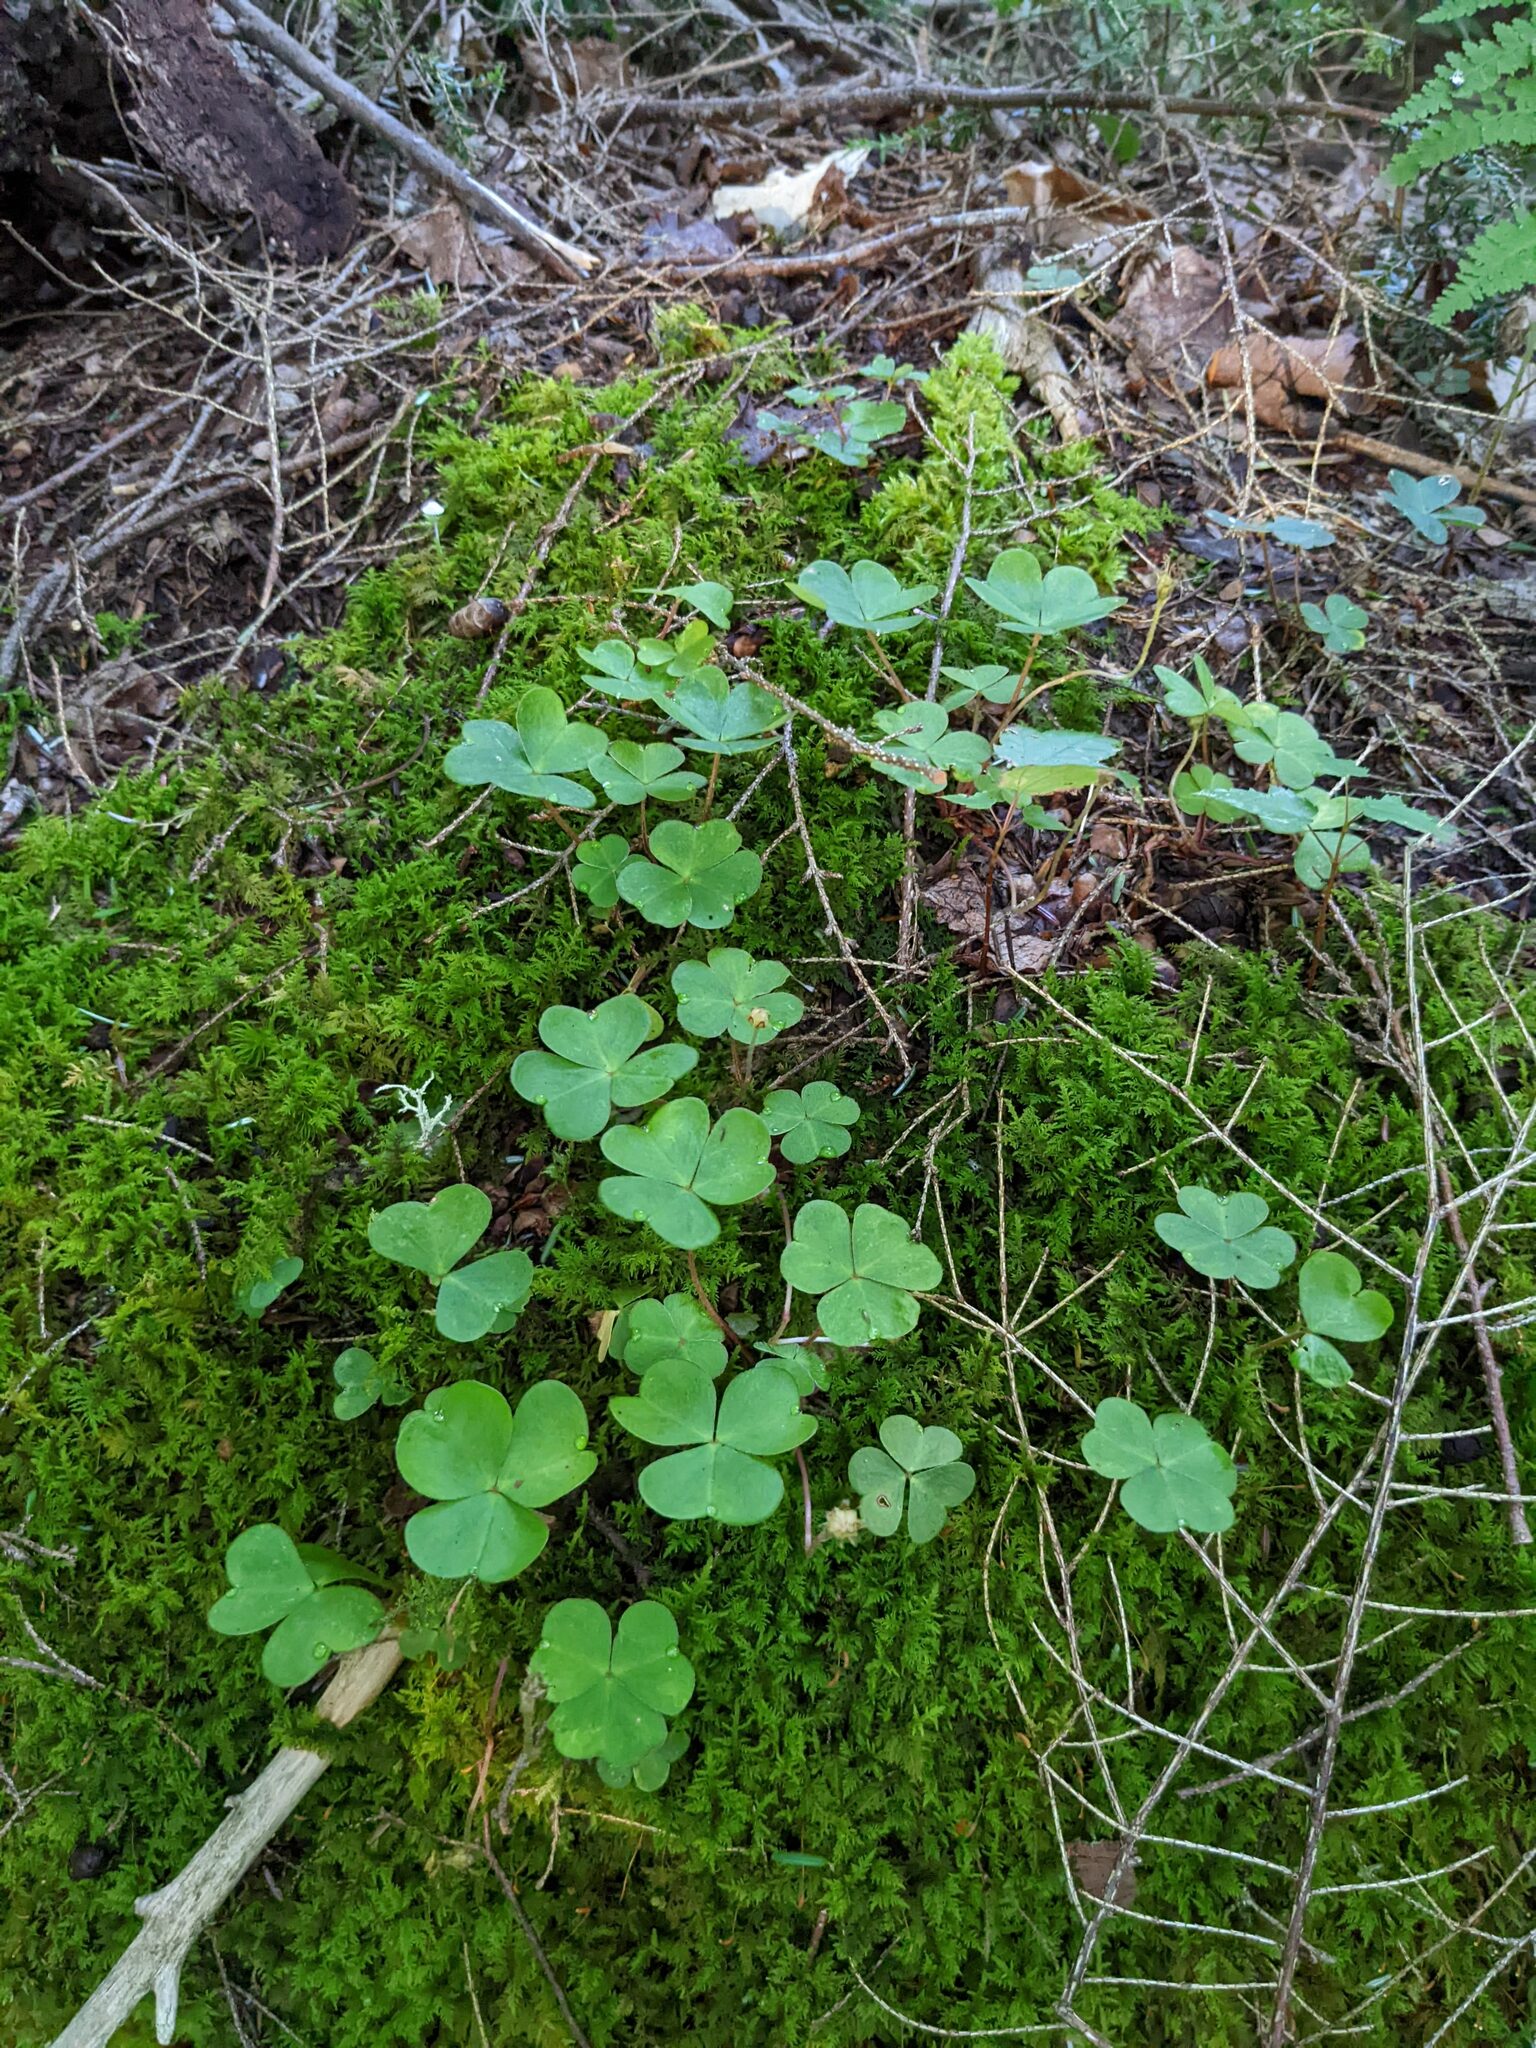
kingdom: Plantae
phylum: Tracheophyta
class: Magnoliopsida
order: Oxalidales
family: Oxalidaceae
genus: Oxalis
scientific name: Oxalis montana
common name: American wood-sorrel
